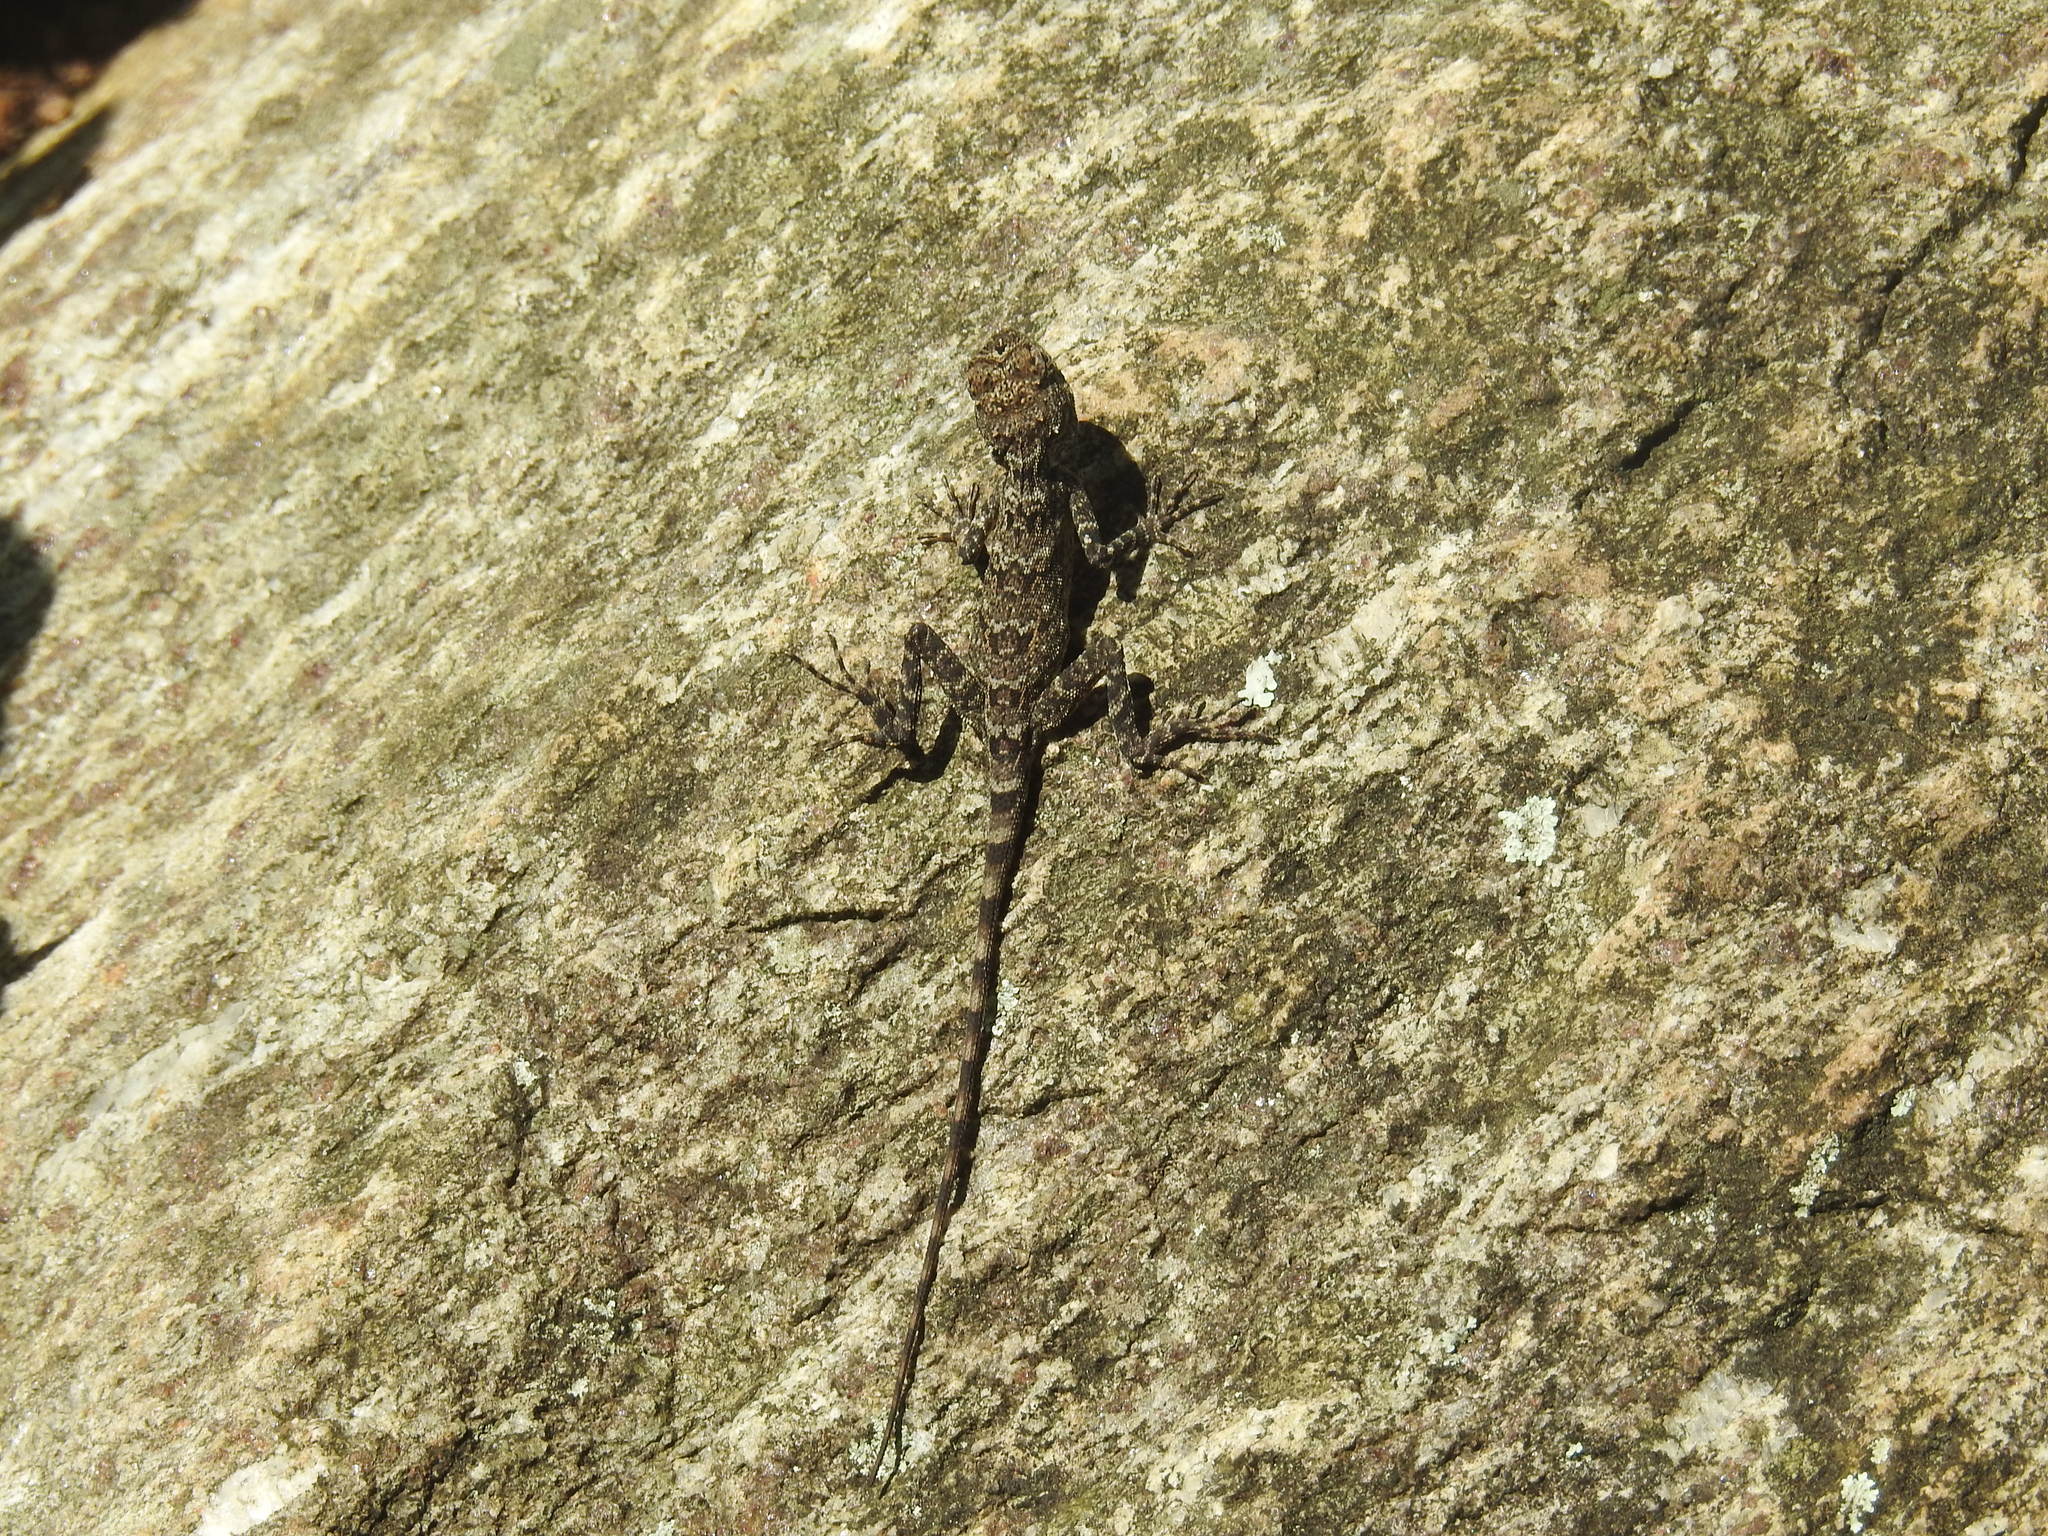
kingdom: Animalia
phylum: Chordata
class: Squamata
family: Agamidae
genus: Psammophilus
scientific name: Psammophilus dorsalis
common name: South indian rock agama
